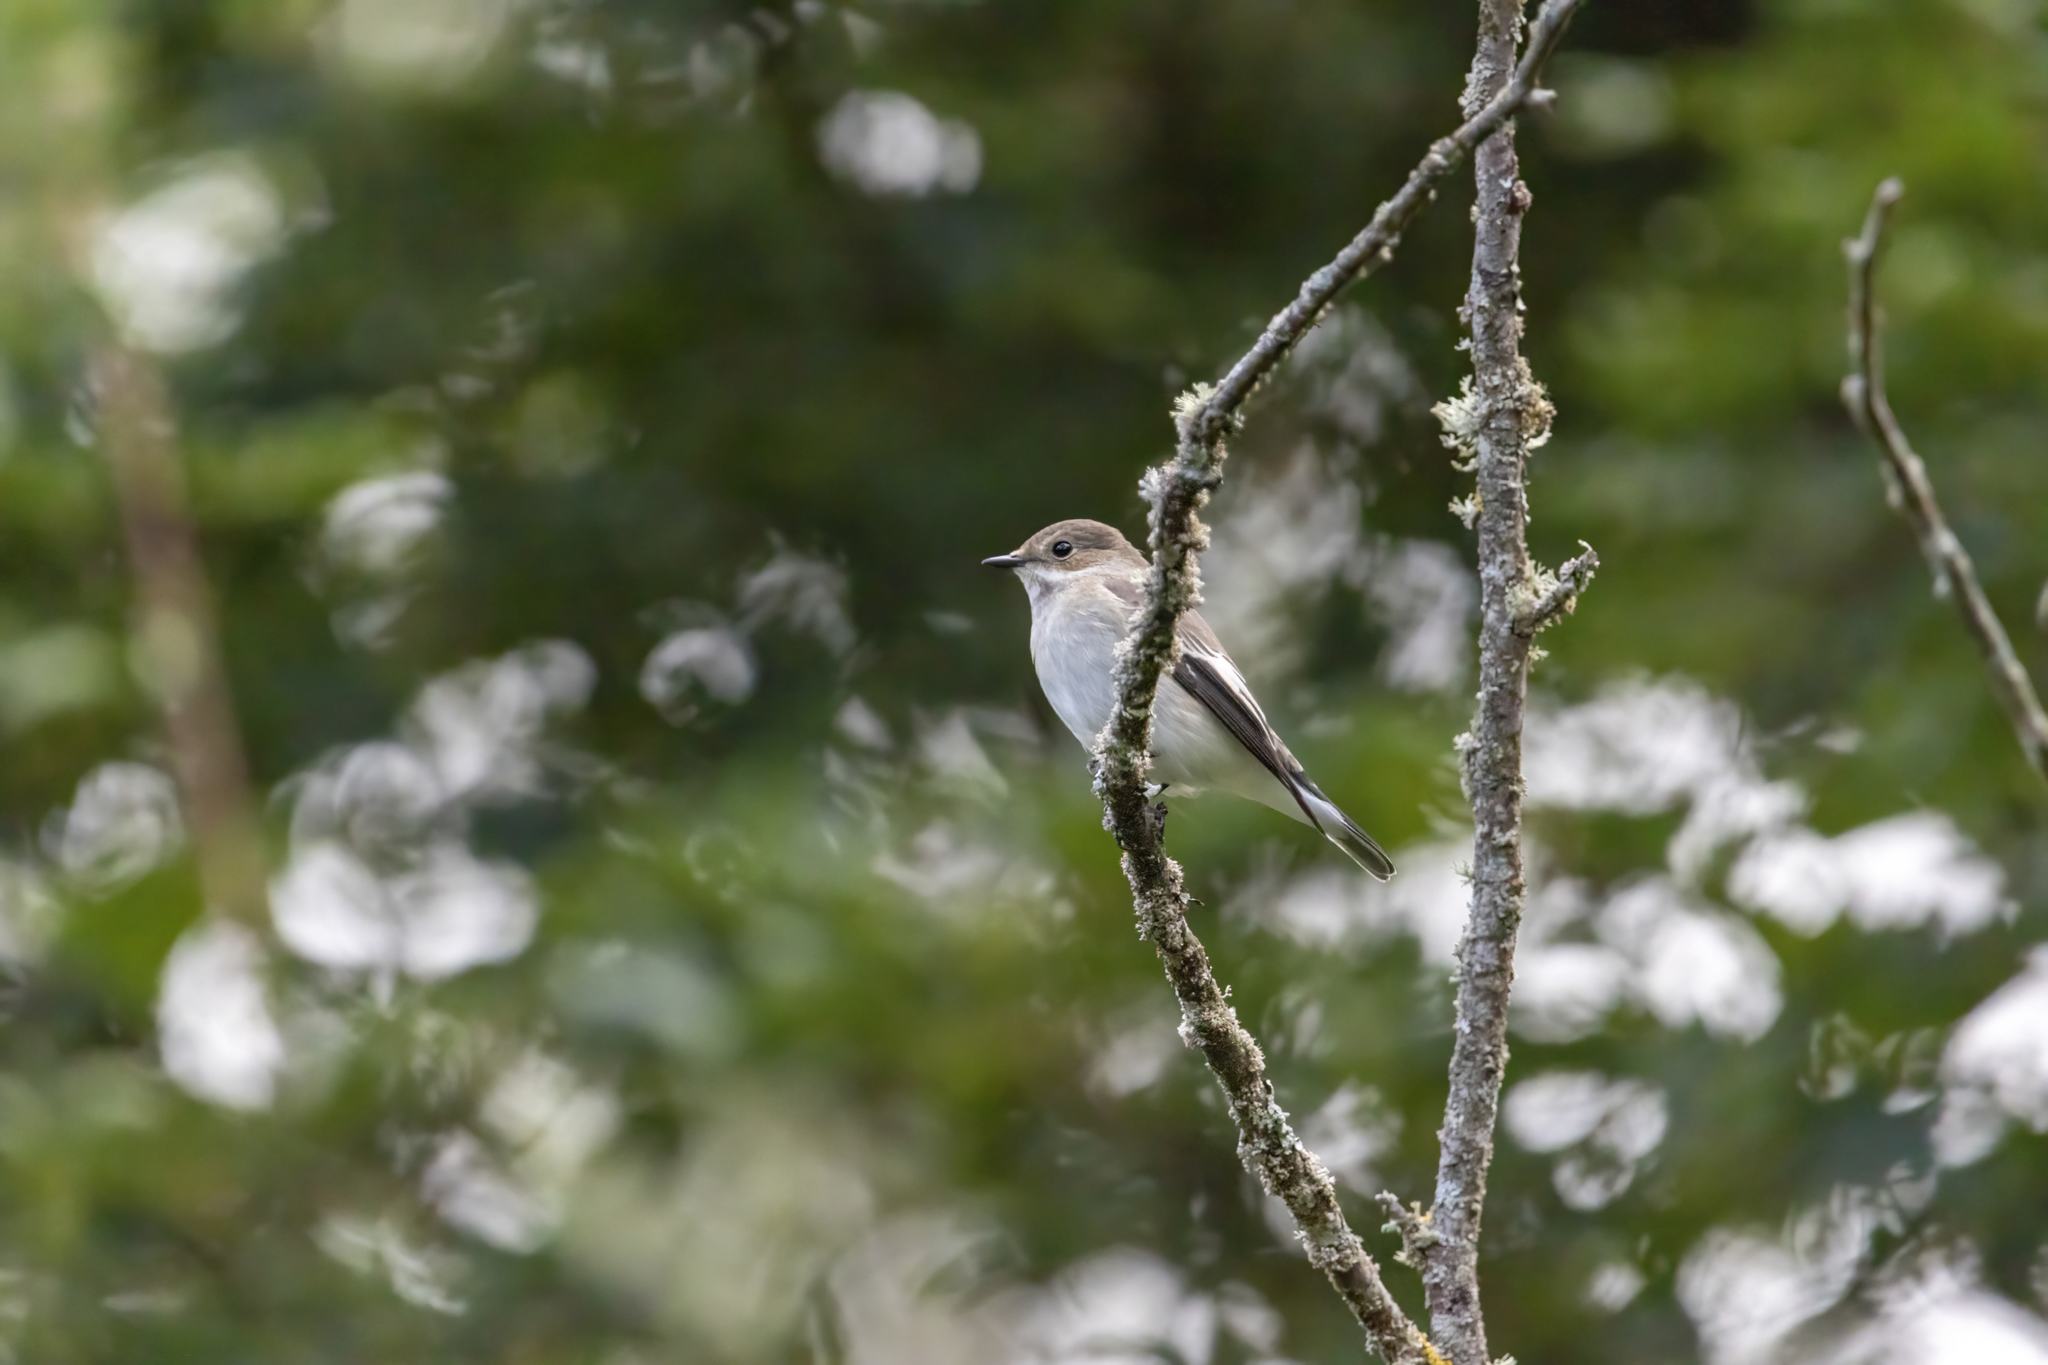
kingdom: Animalia
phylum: Chordata
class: Aves
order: Passeriformes
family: Muscicapidae
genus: Ficedula
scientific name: Ficedula hypoleuca
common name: European pied flycatcher
